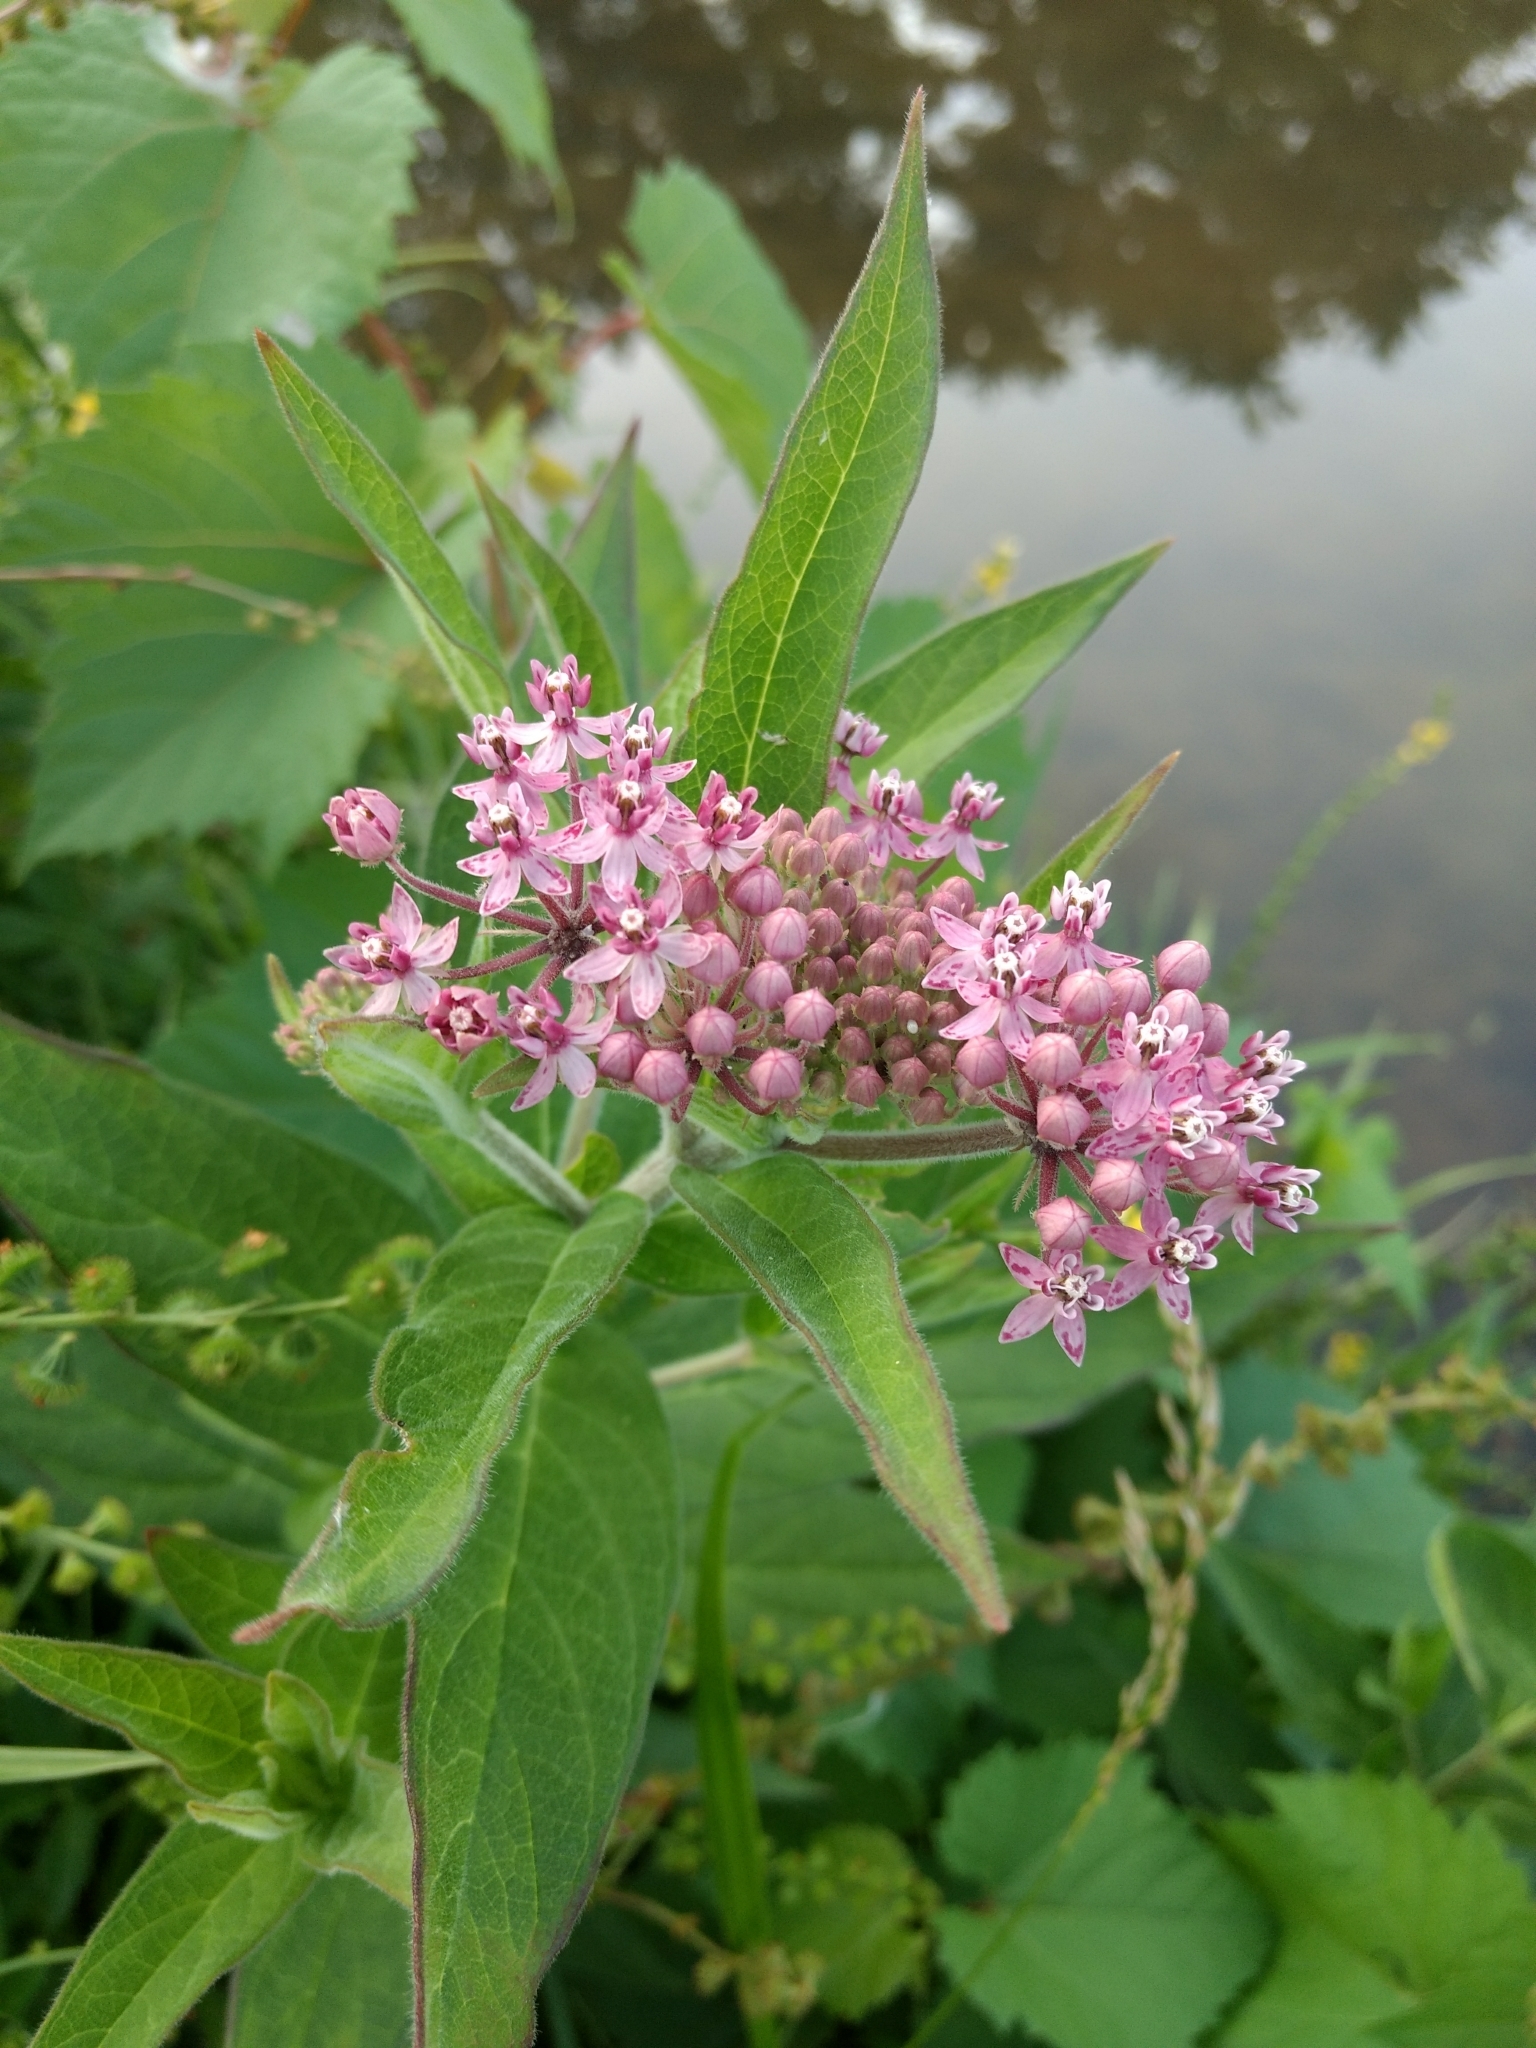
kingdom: Plantae
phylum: Tracheophyta
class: Magnoliopsida
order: Gentianales
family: Apocynaceae
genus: Asclepias
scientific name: Asclepias incarnata
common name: Swamp milkweed
